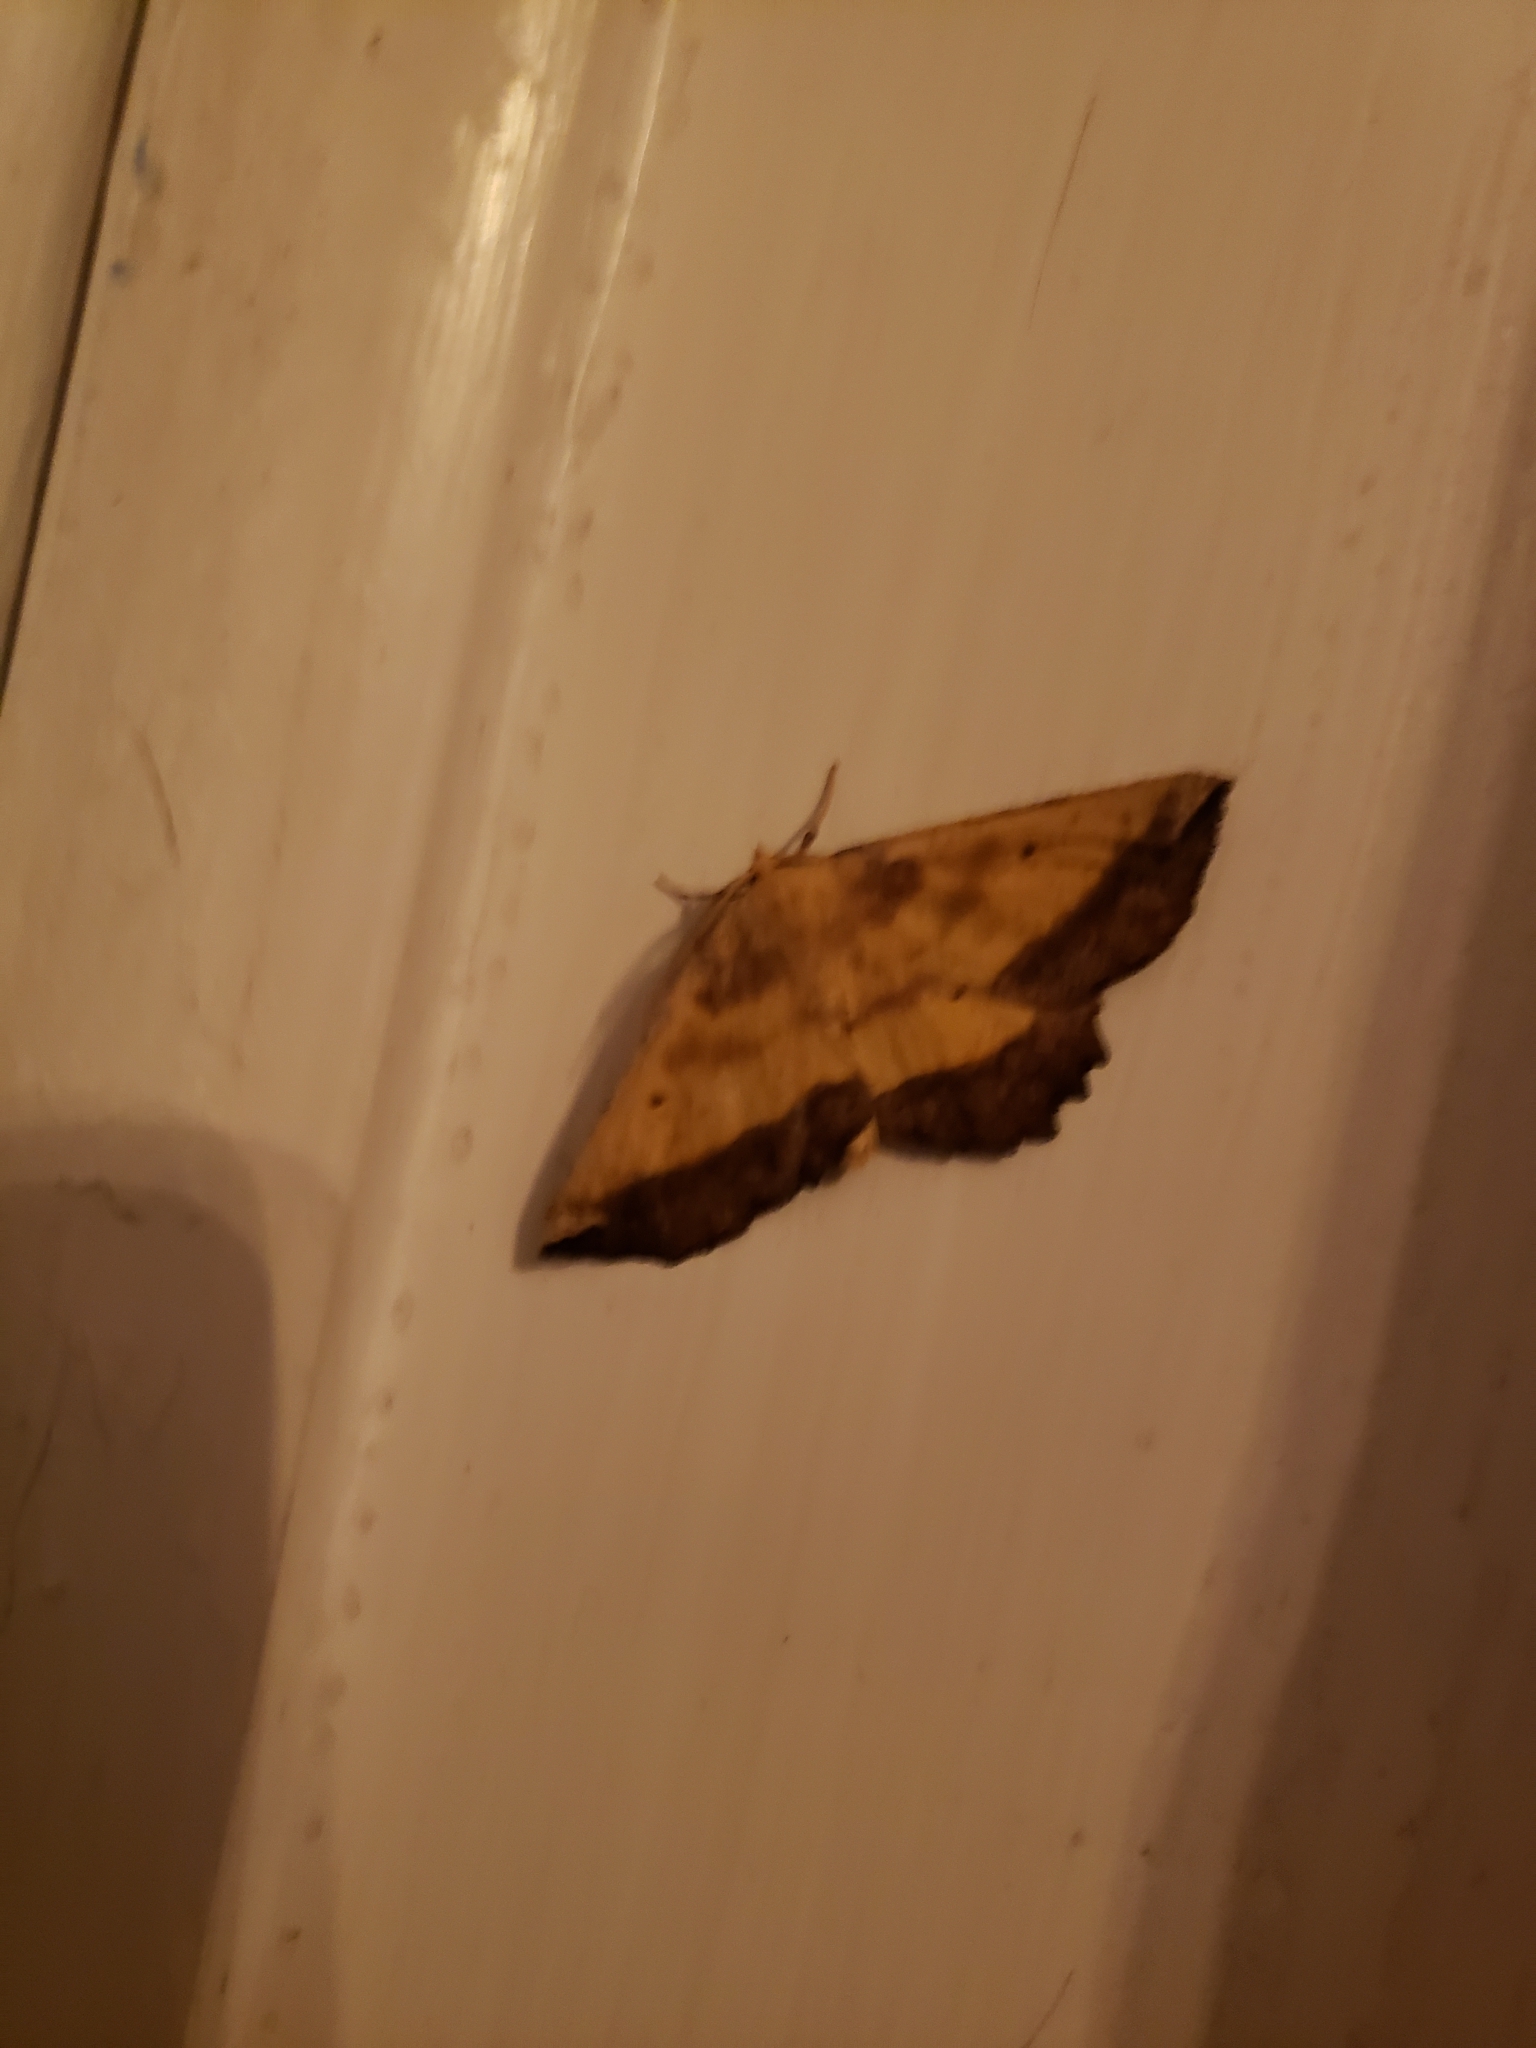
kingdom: Animalia
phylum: Arthropoda
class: Insecta
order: Lepidoptera
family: Geometridae
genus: Euchlaena
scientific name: Euchlaena serrata
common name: Saw wing
